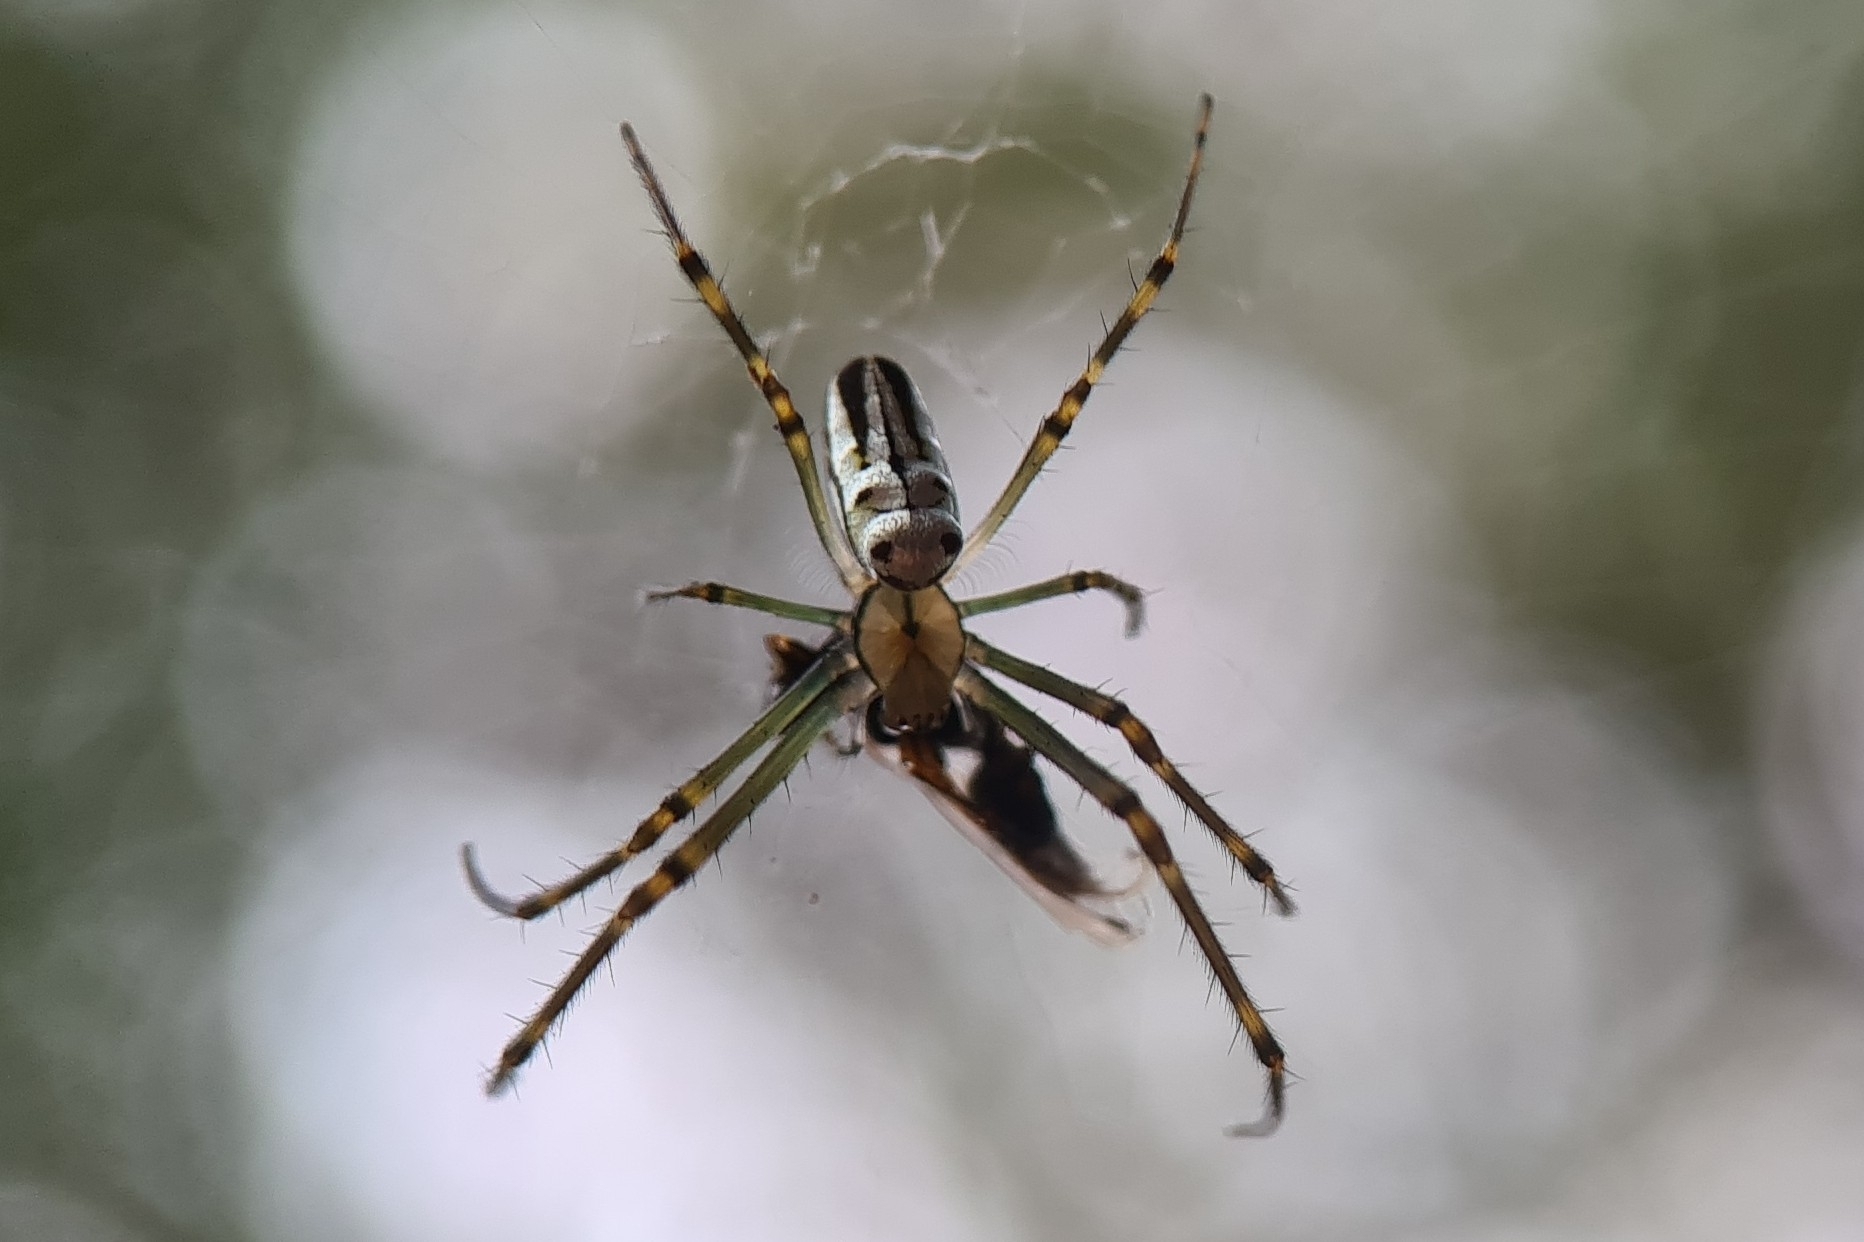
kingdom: Animalia
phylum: Arthropoda
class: Arachnida
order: Araneae
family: Tetragnathidae
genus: Leucauge
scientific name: Leucauge dromedaria
